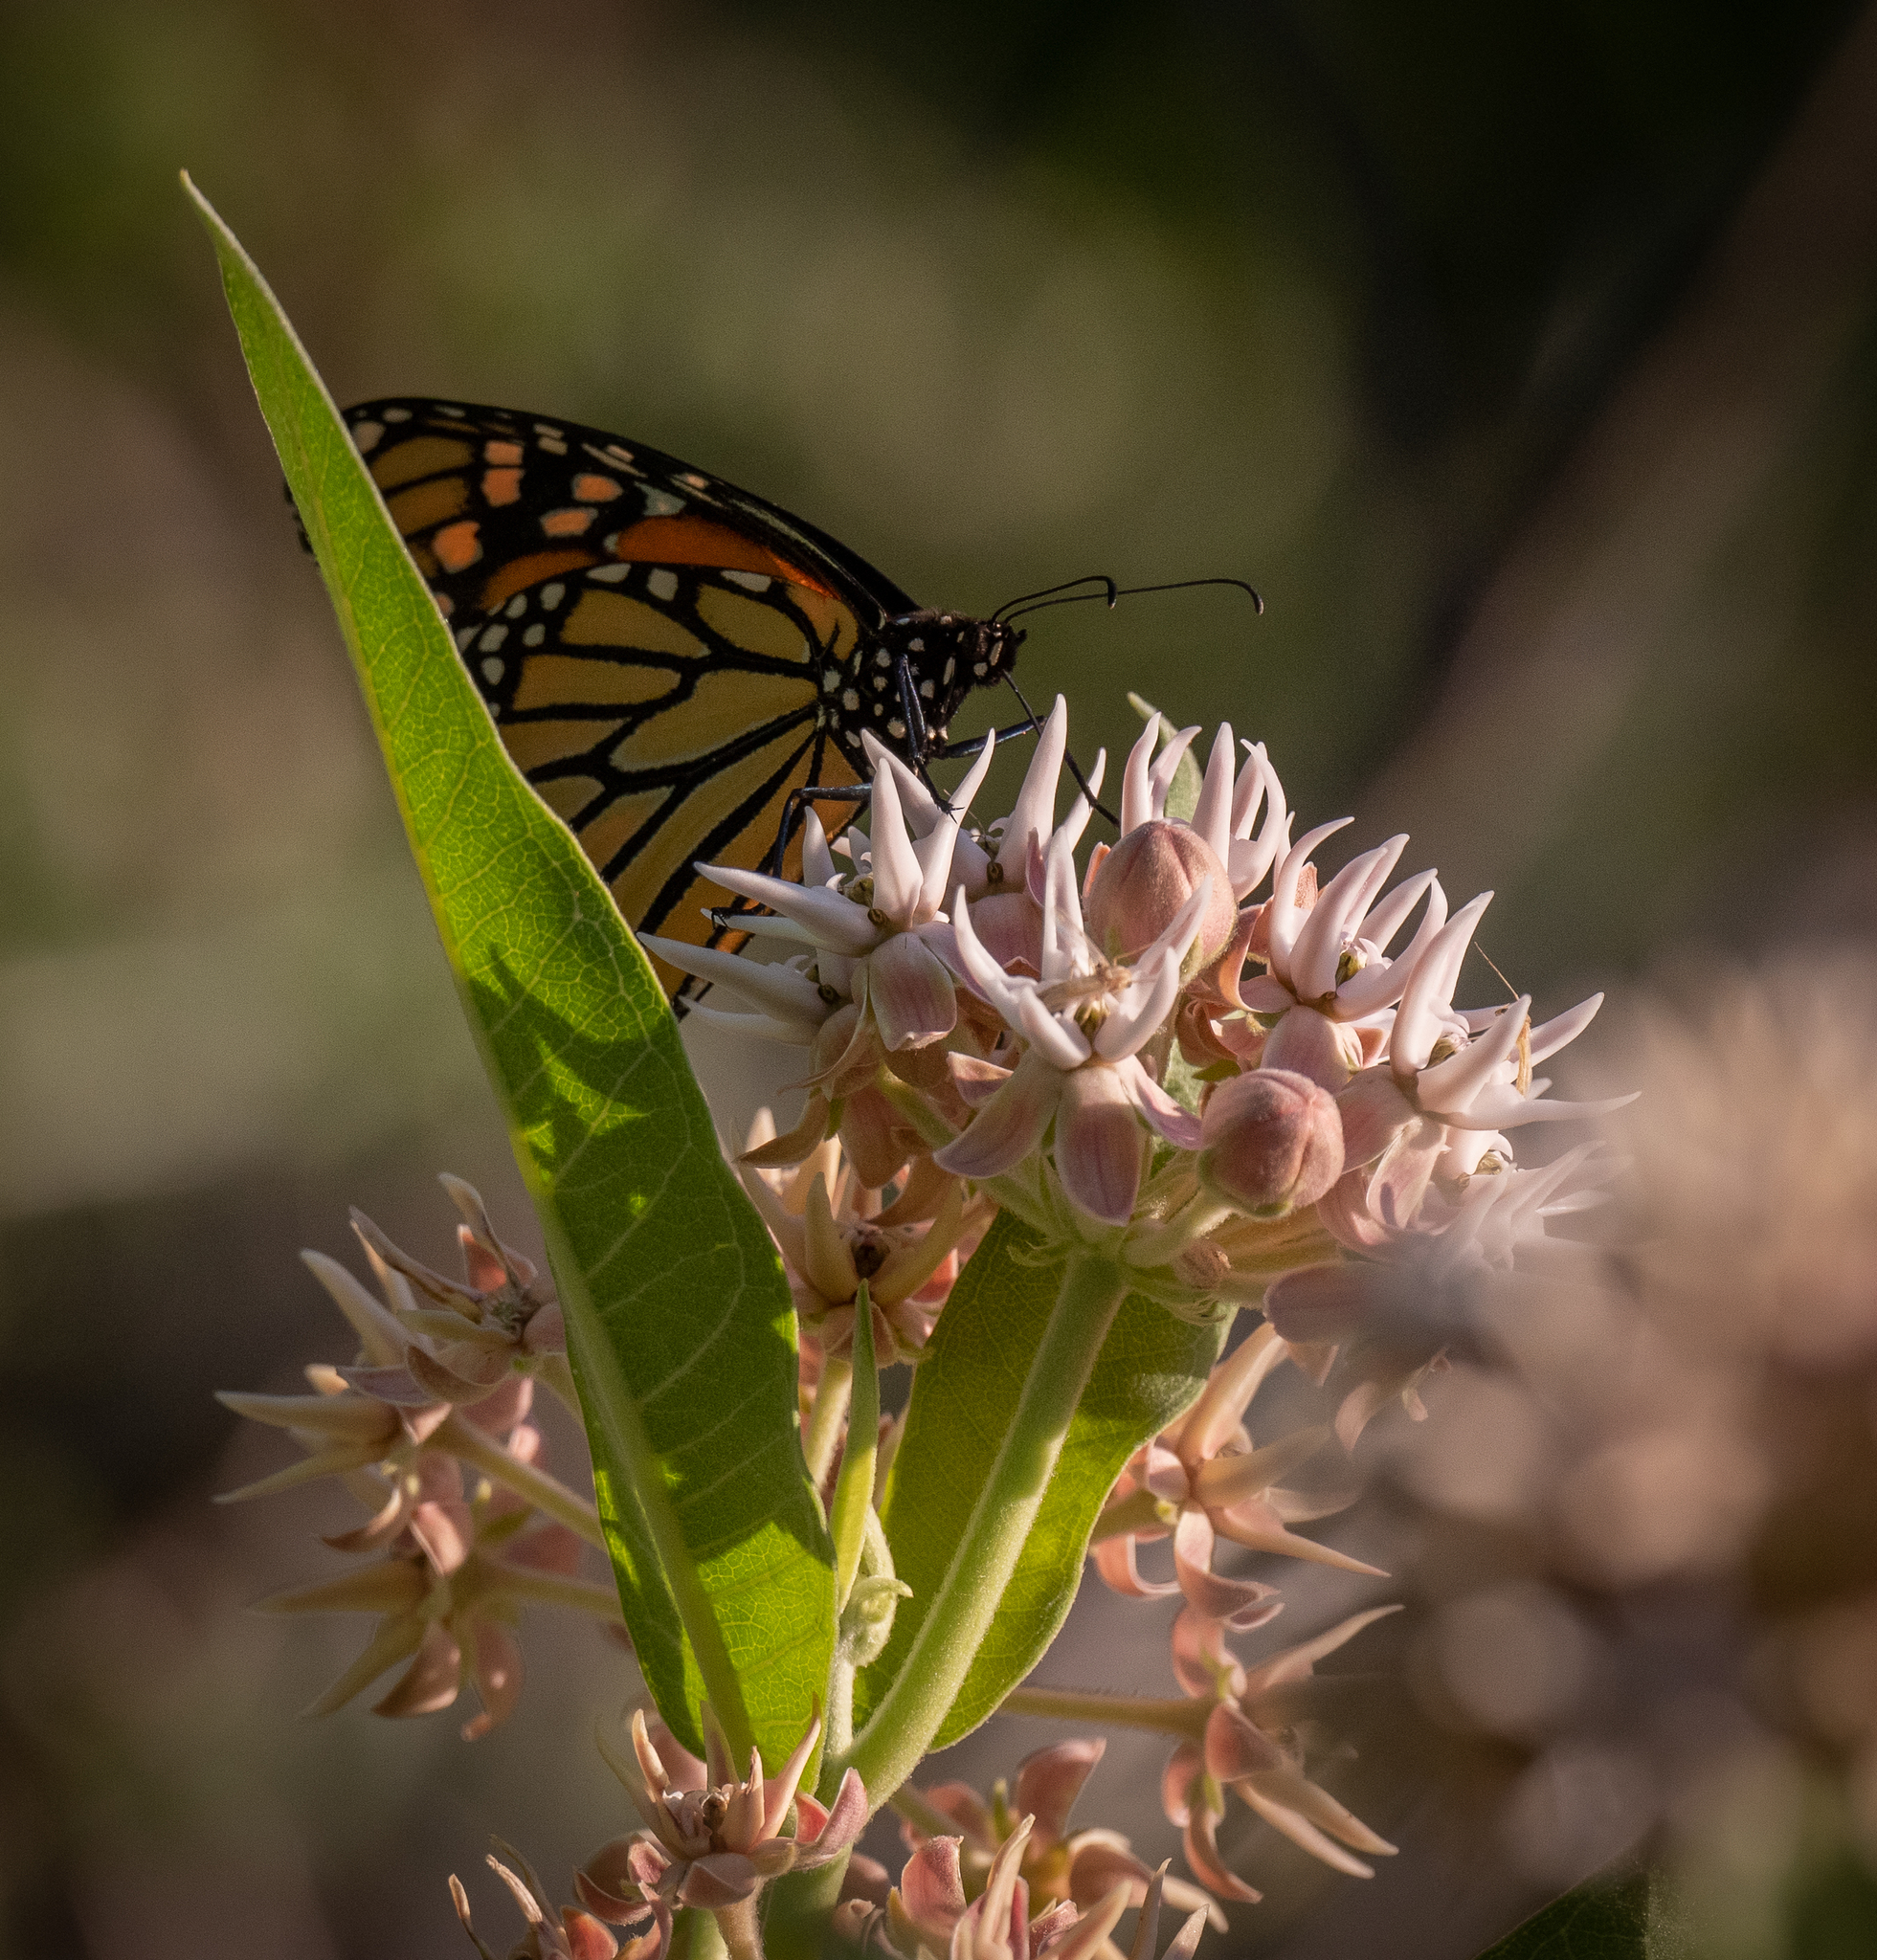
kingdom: Animalia
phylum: Arthropoda
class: Insecta
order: Lepidoptera
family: Nymphalidae
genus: Danaus
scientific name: Danaus plexippus
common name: Monarch
